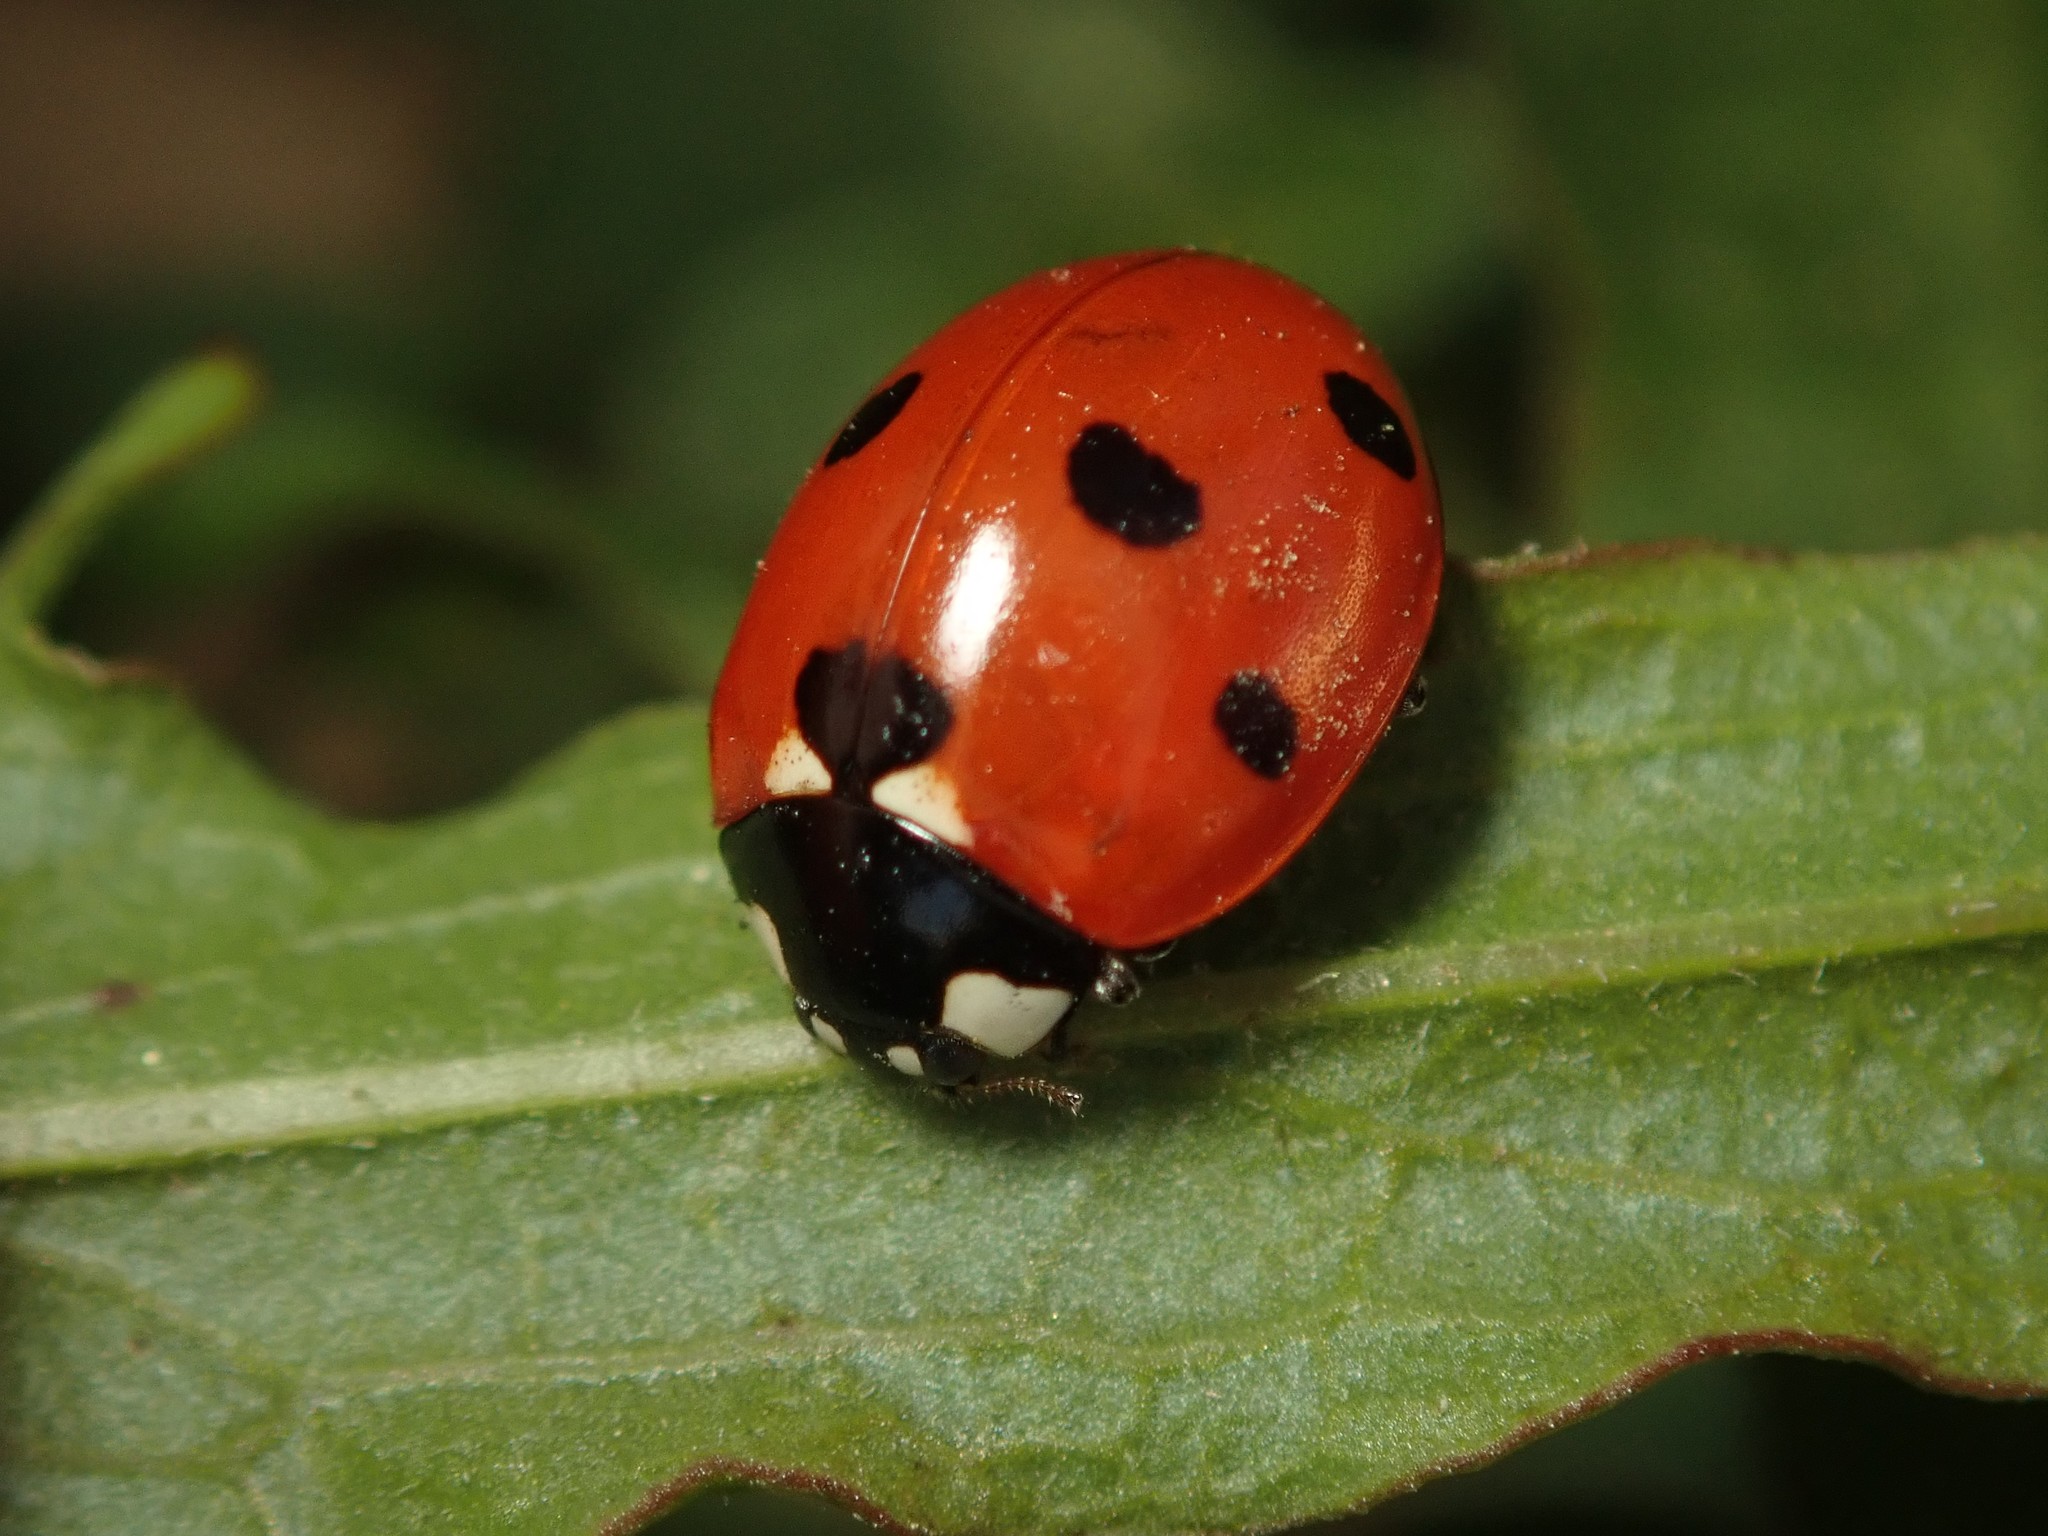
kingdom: Animalia
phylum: Arthropoda
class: Insecta
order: Coleoptera
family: Coccinellidae
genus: Coccinella
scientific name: Coccinella septempunctata
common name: Sevenspotted lady beetle
